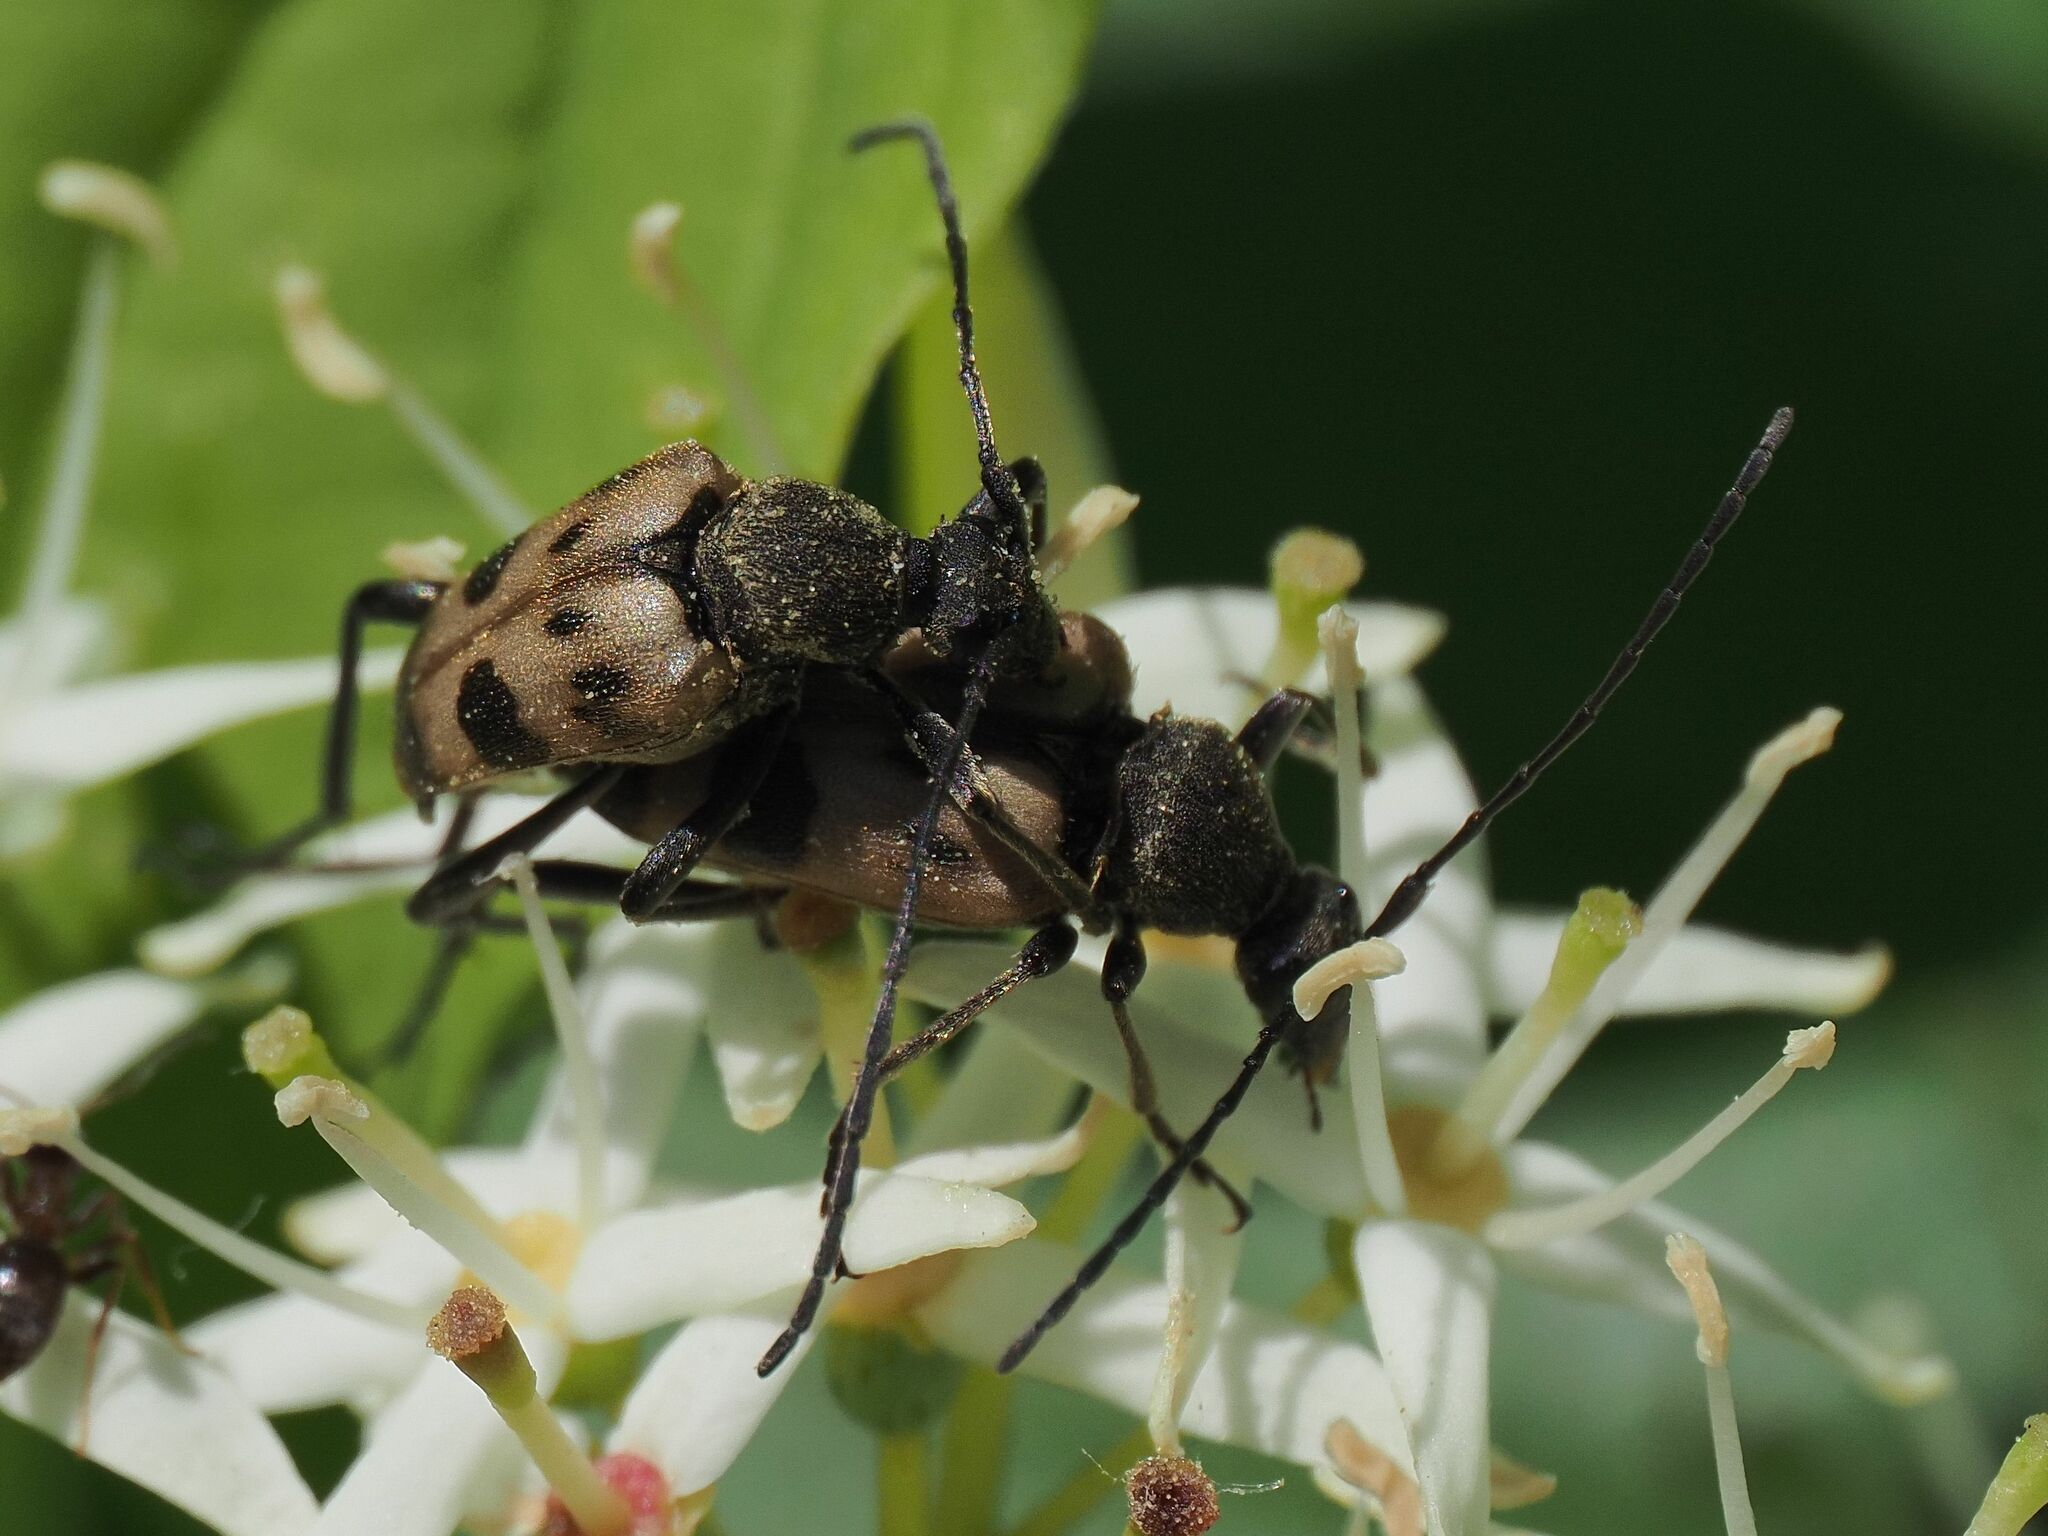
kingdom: Animalia
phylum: Arthropoda
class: Insecta
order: Coleoptera
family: Cerambycidae
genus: Pachytodes
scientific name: Pachytodes cerambyciformis
